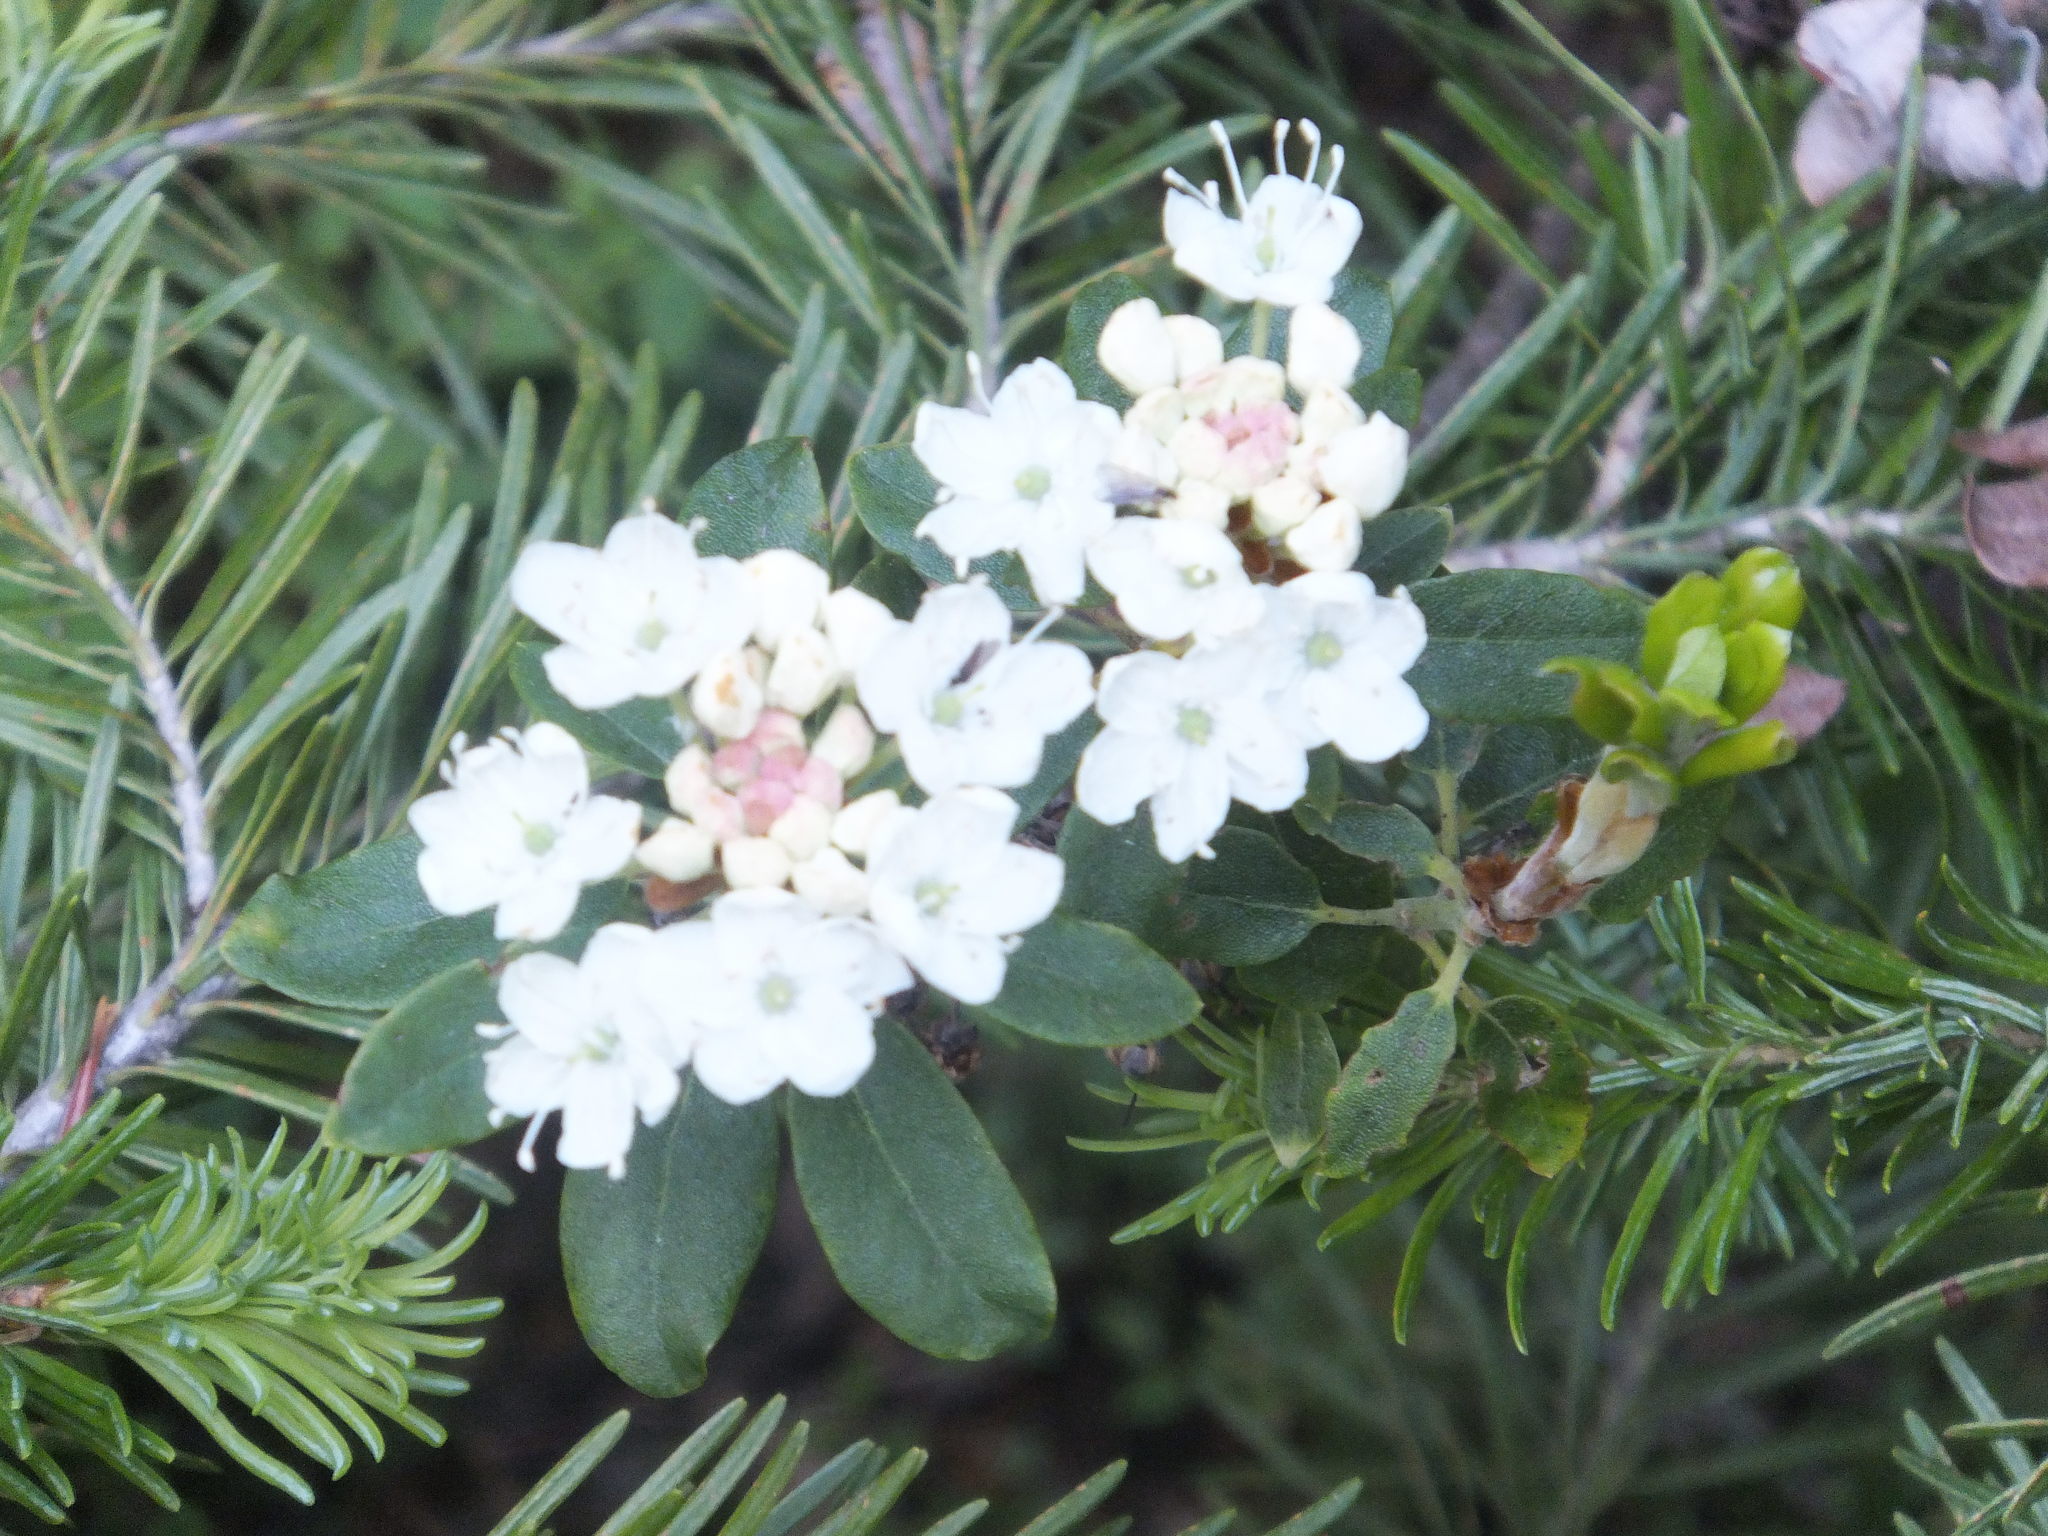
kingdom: Plantae
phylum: Tracheophyta
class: Magnoliopsida
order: Ericales
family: Ericaceae
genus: Rhododendron
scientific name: Rhododendron columbianum
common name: Western labrador tea
